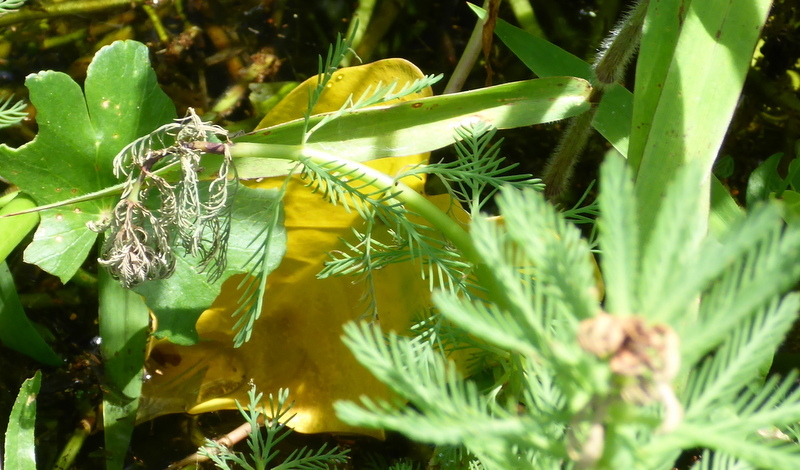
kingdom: Plantae
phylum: Tracheophyta
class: Magnoliopsida
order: Saxifragales
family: Haloragaceae
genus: Myriophyllum
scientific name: Myriophyllum aquaticum
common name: Parrot's feather
